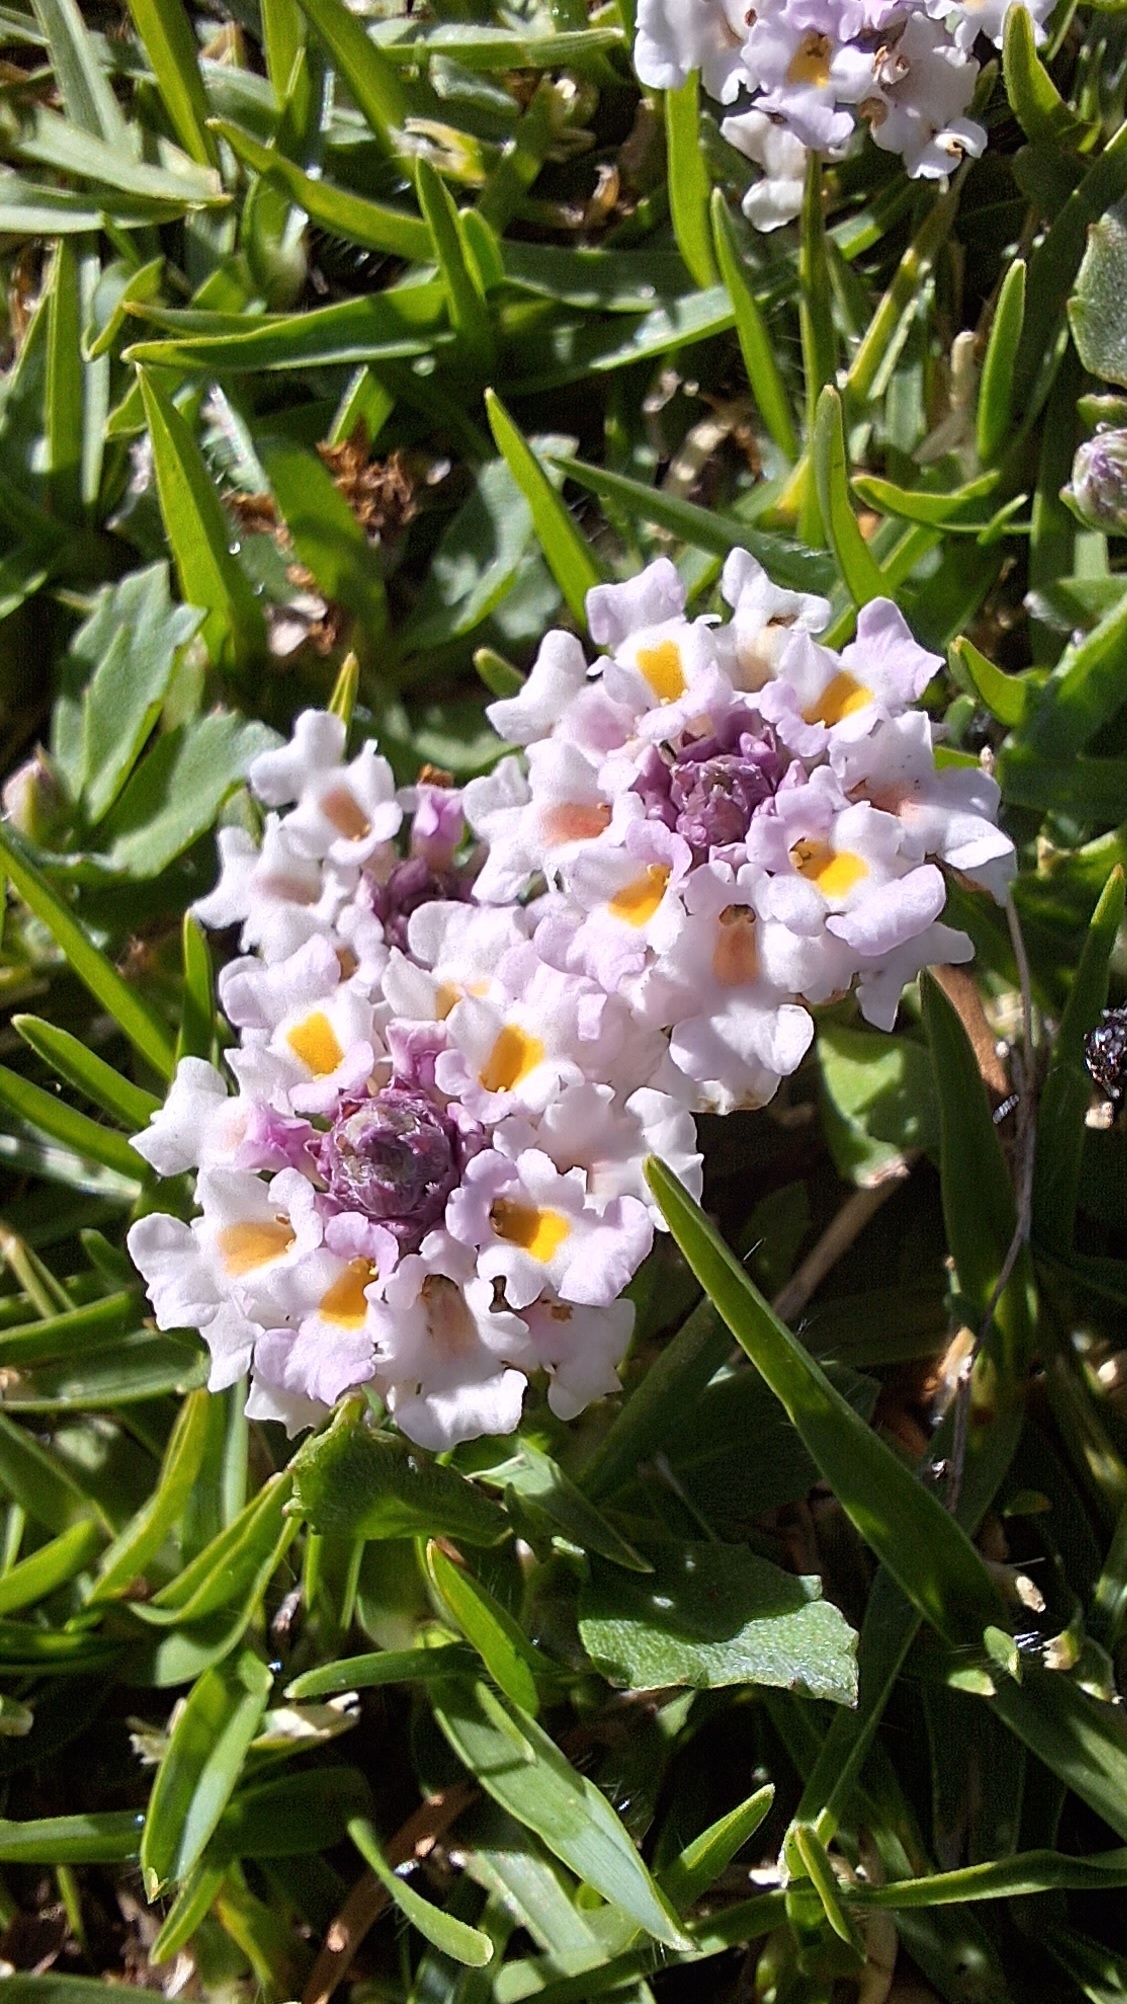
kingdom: Plantae
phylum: Tracheophyta
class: Magnoliopsida
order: Lamiales
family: Verbenaceae
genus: Phyla
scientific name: Phyla nodiflora
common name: Frogfruit
